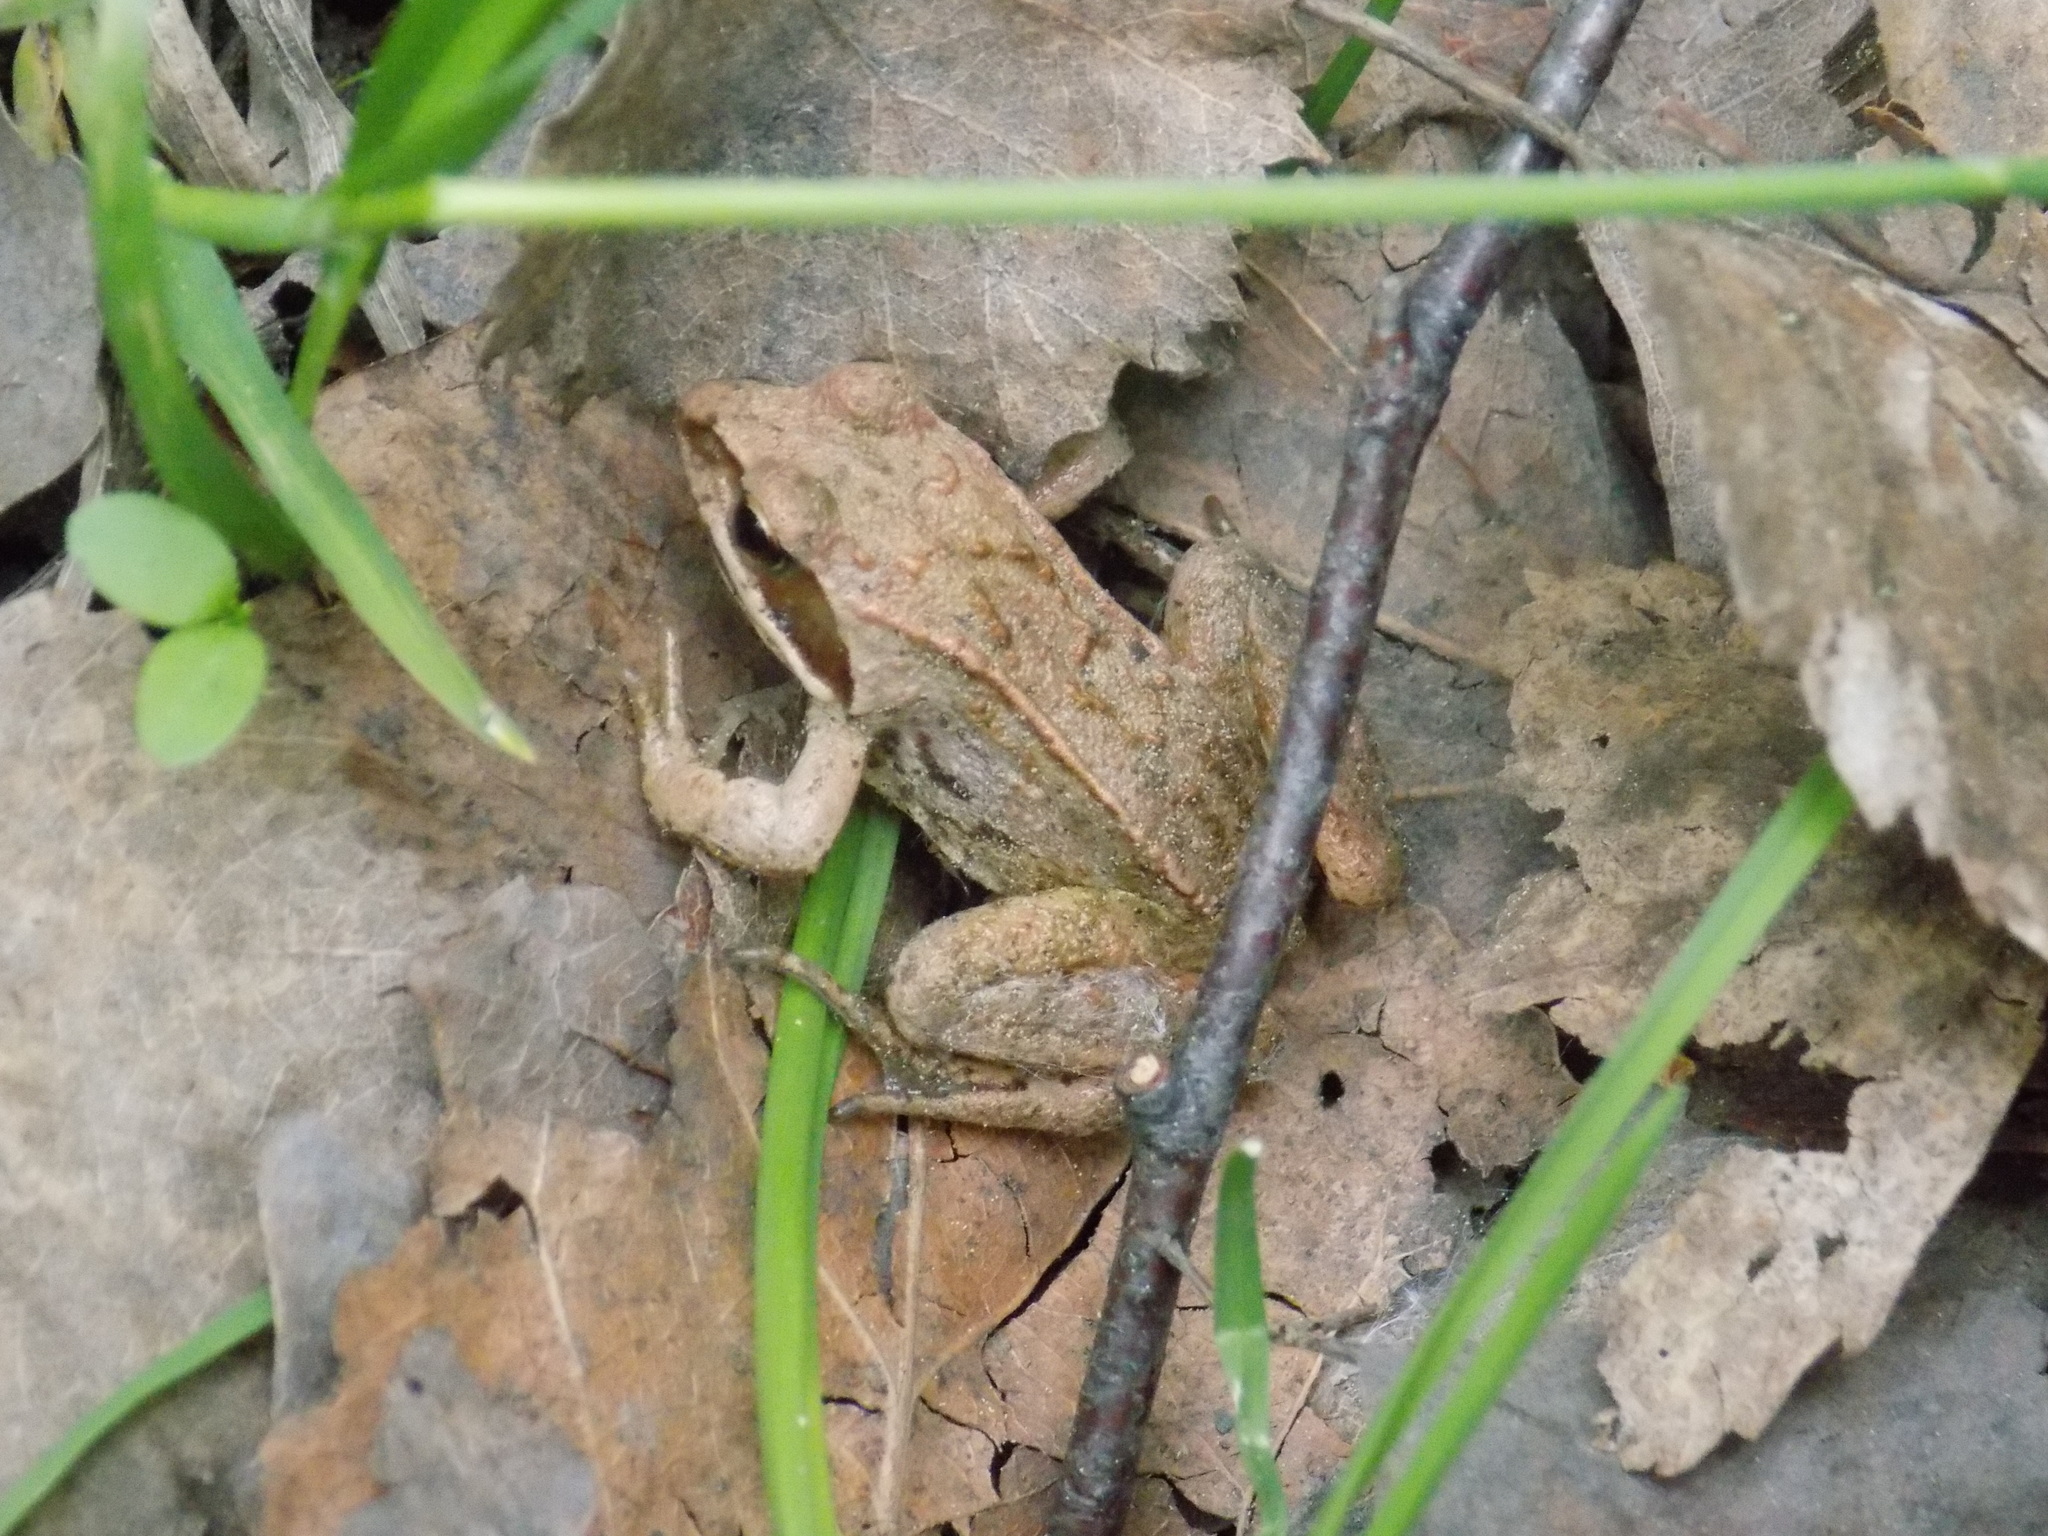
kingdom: Animalia
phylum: Chordata
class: Amphibia
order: Anura
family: Ranidae
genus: Rana
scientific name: Rana arvalis
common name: Moor frog
